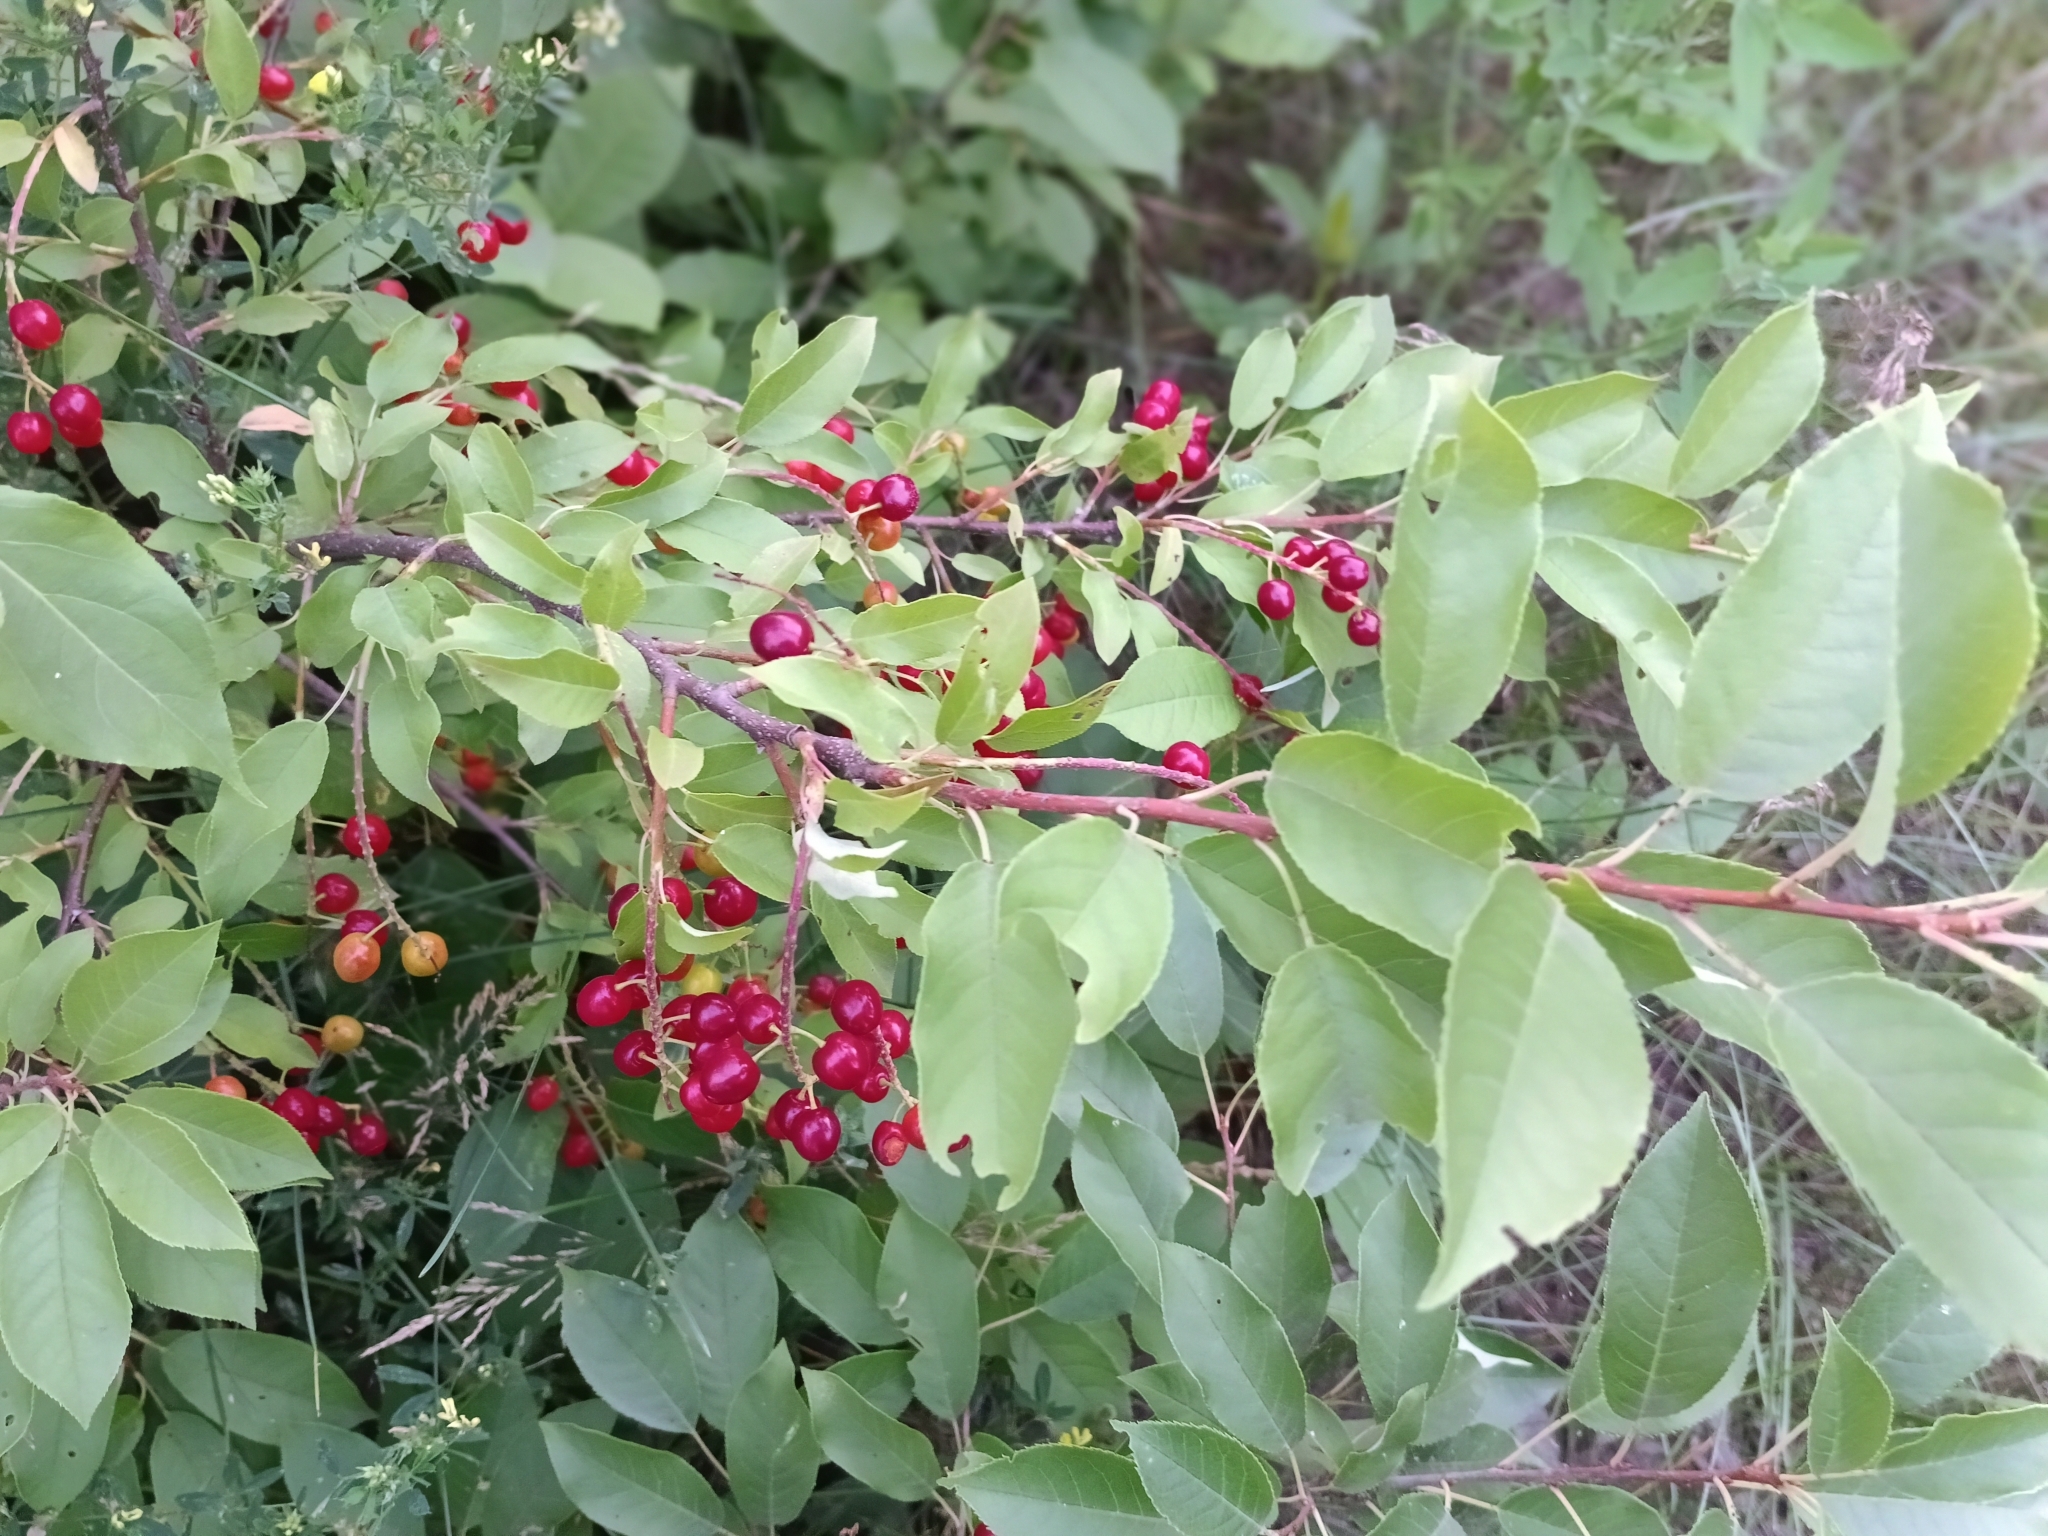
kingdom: Plantae
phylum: Tracheophyta
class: Magnoliopsida
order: Rosales
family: Rosaceae
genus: Prunus
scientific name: Prunus virginiana
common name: Chokecherry
